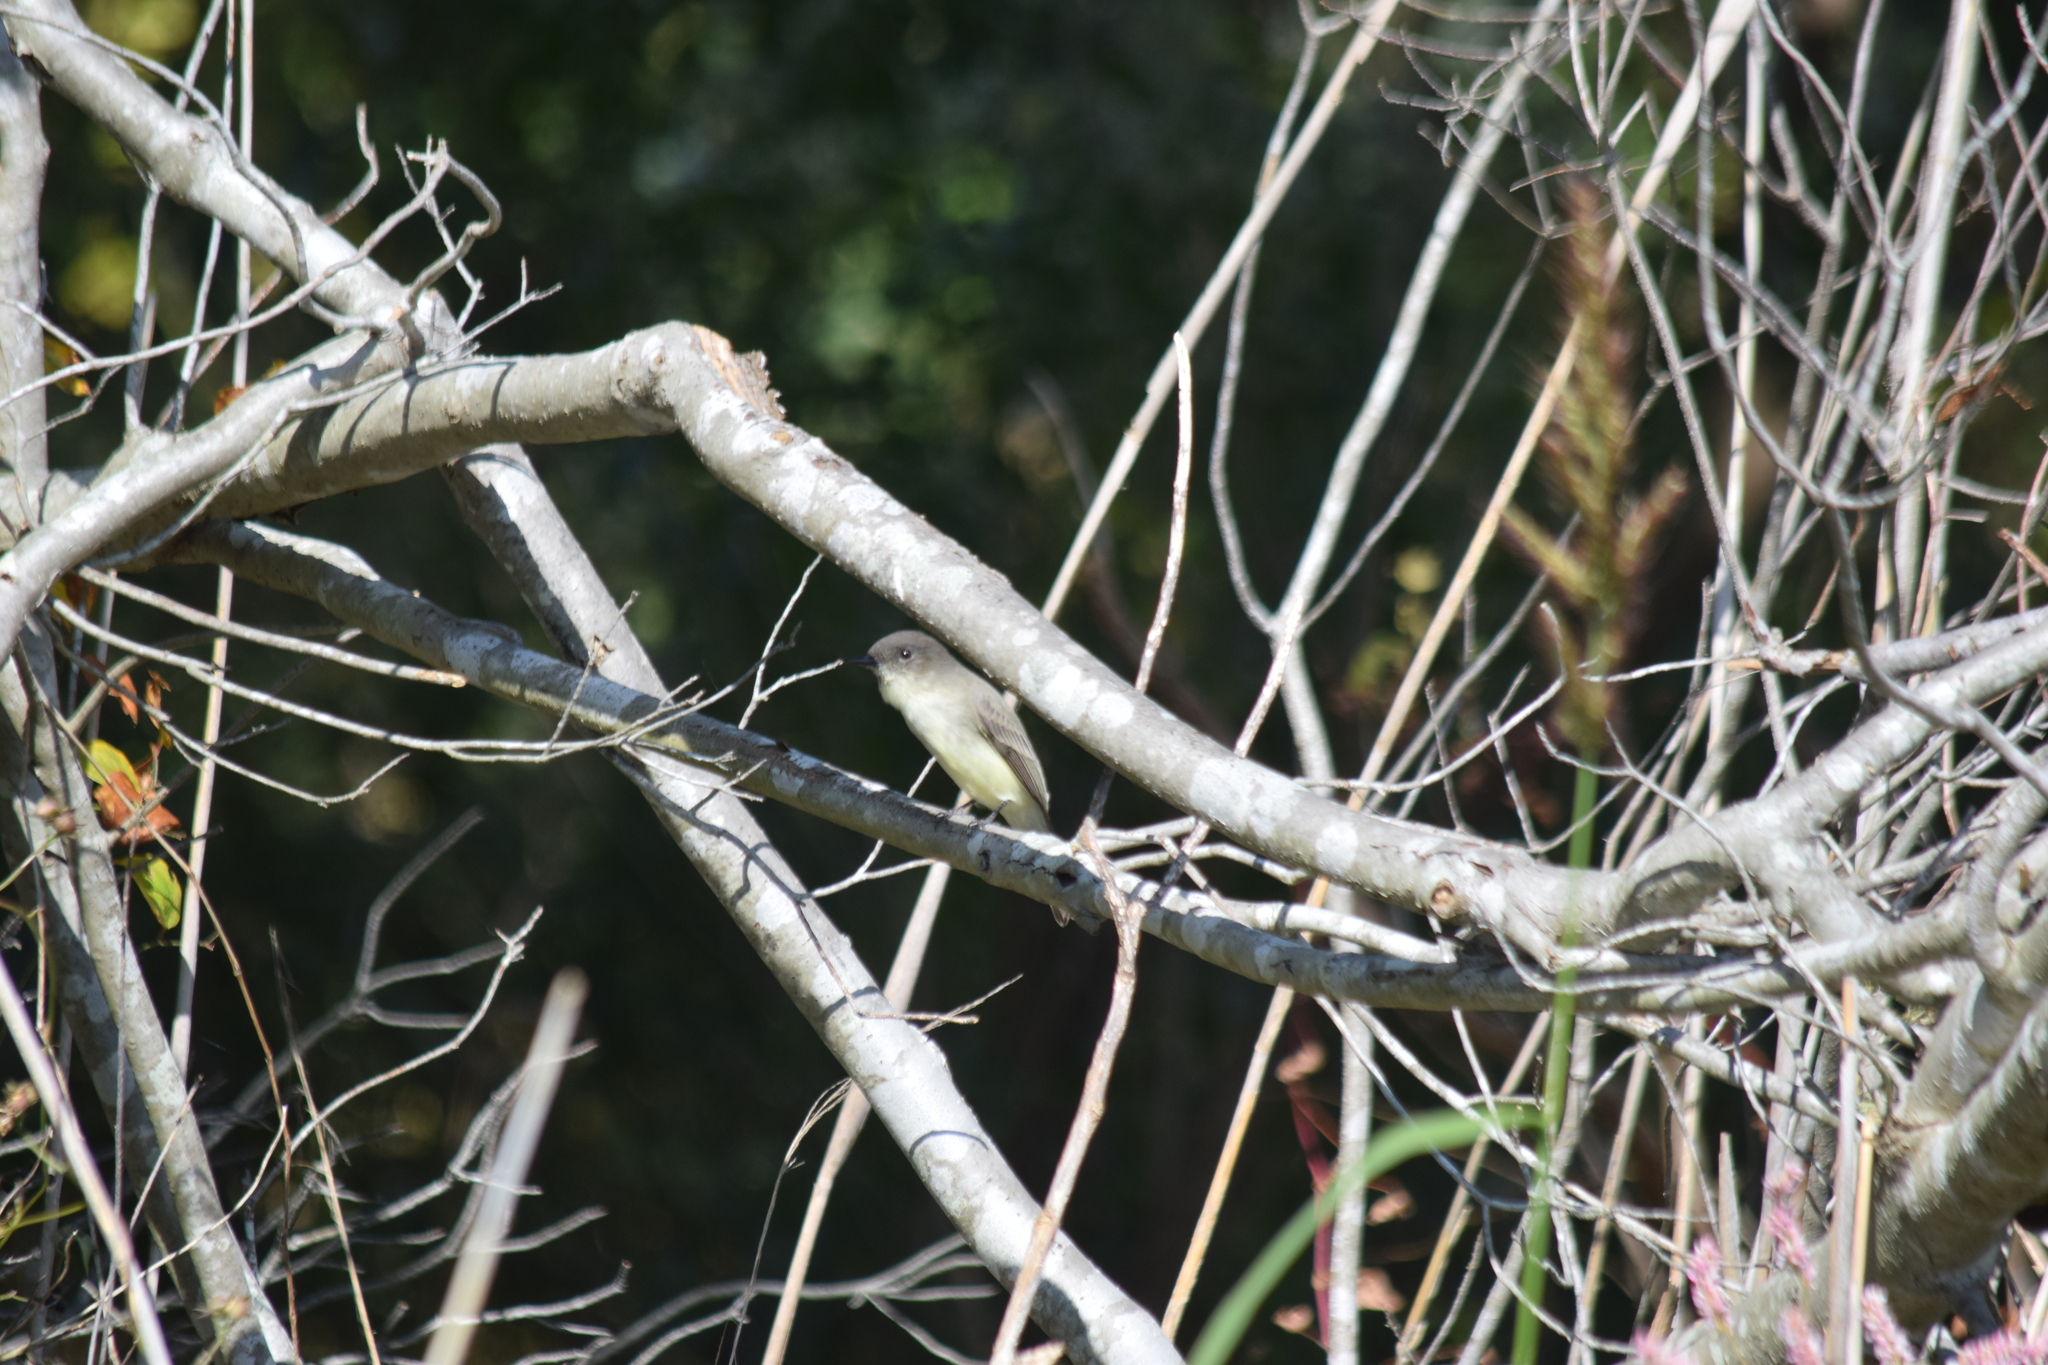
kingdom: Animalia
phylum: Chordata
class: Aves
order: Passeriformes
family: Tyrannidae
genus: Sayornis
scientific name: Sayornis phoebe
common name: Eastern phoebe
